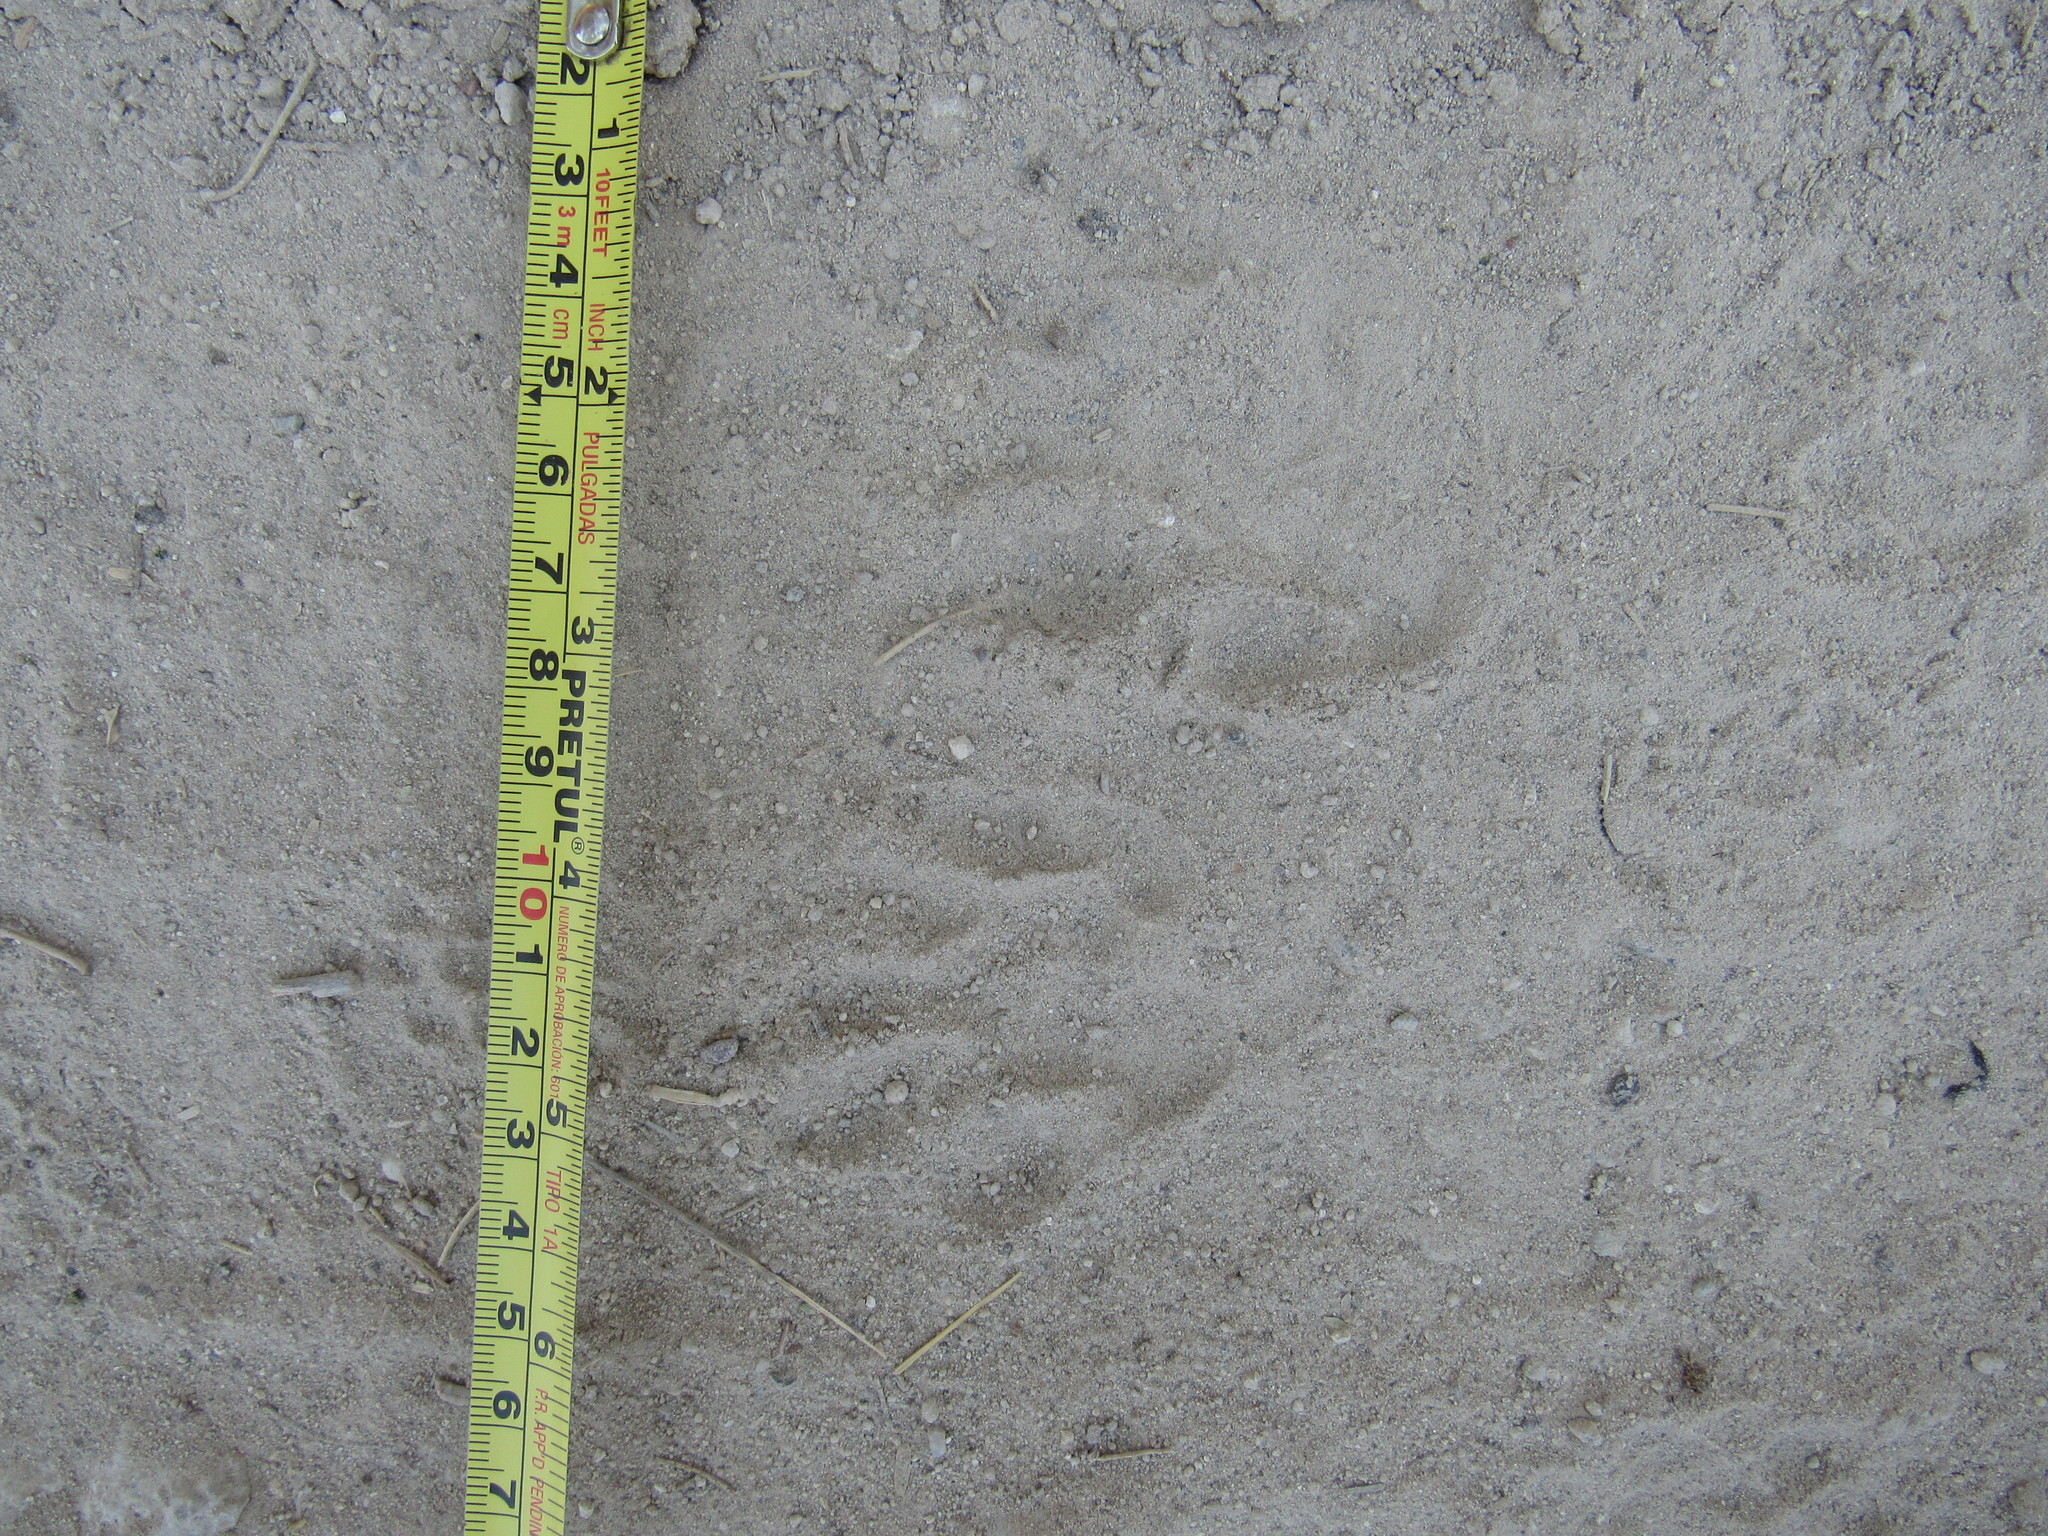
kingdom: Animalia
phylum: Chordata
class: Mammalia
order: Carnivora
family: Procyonidae
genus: Procyon
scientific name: Procyon lotor
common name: Raccoon
